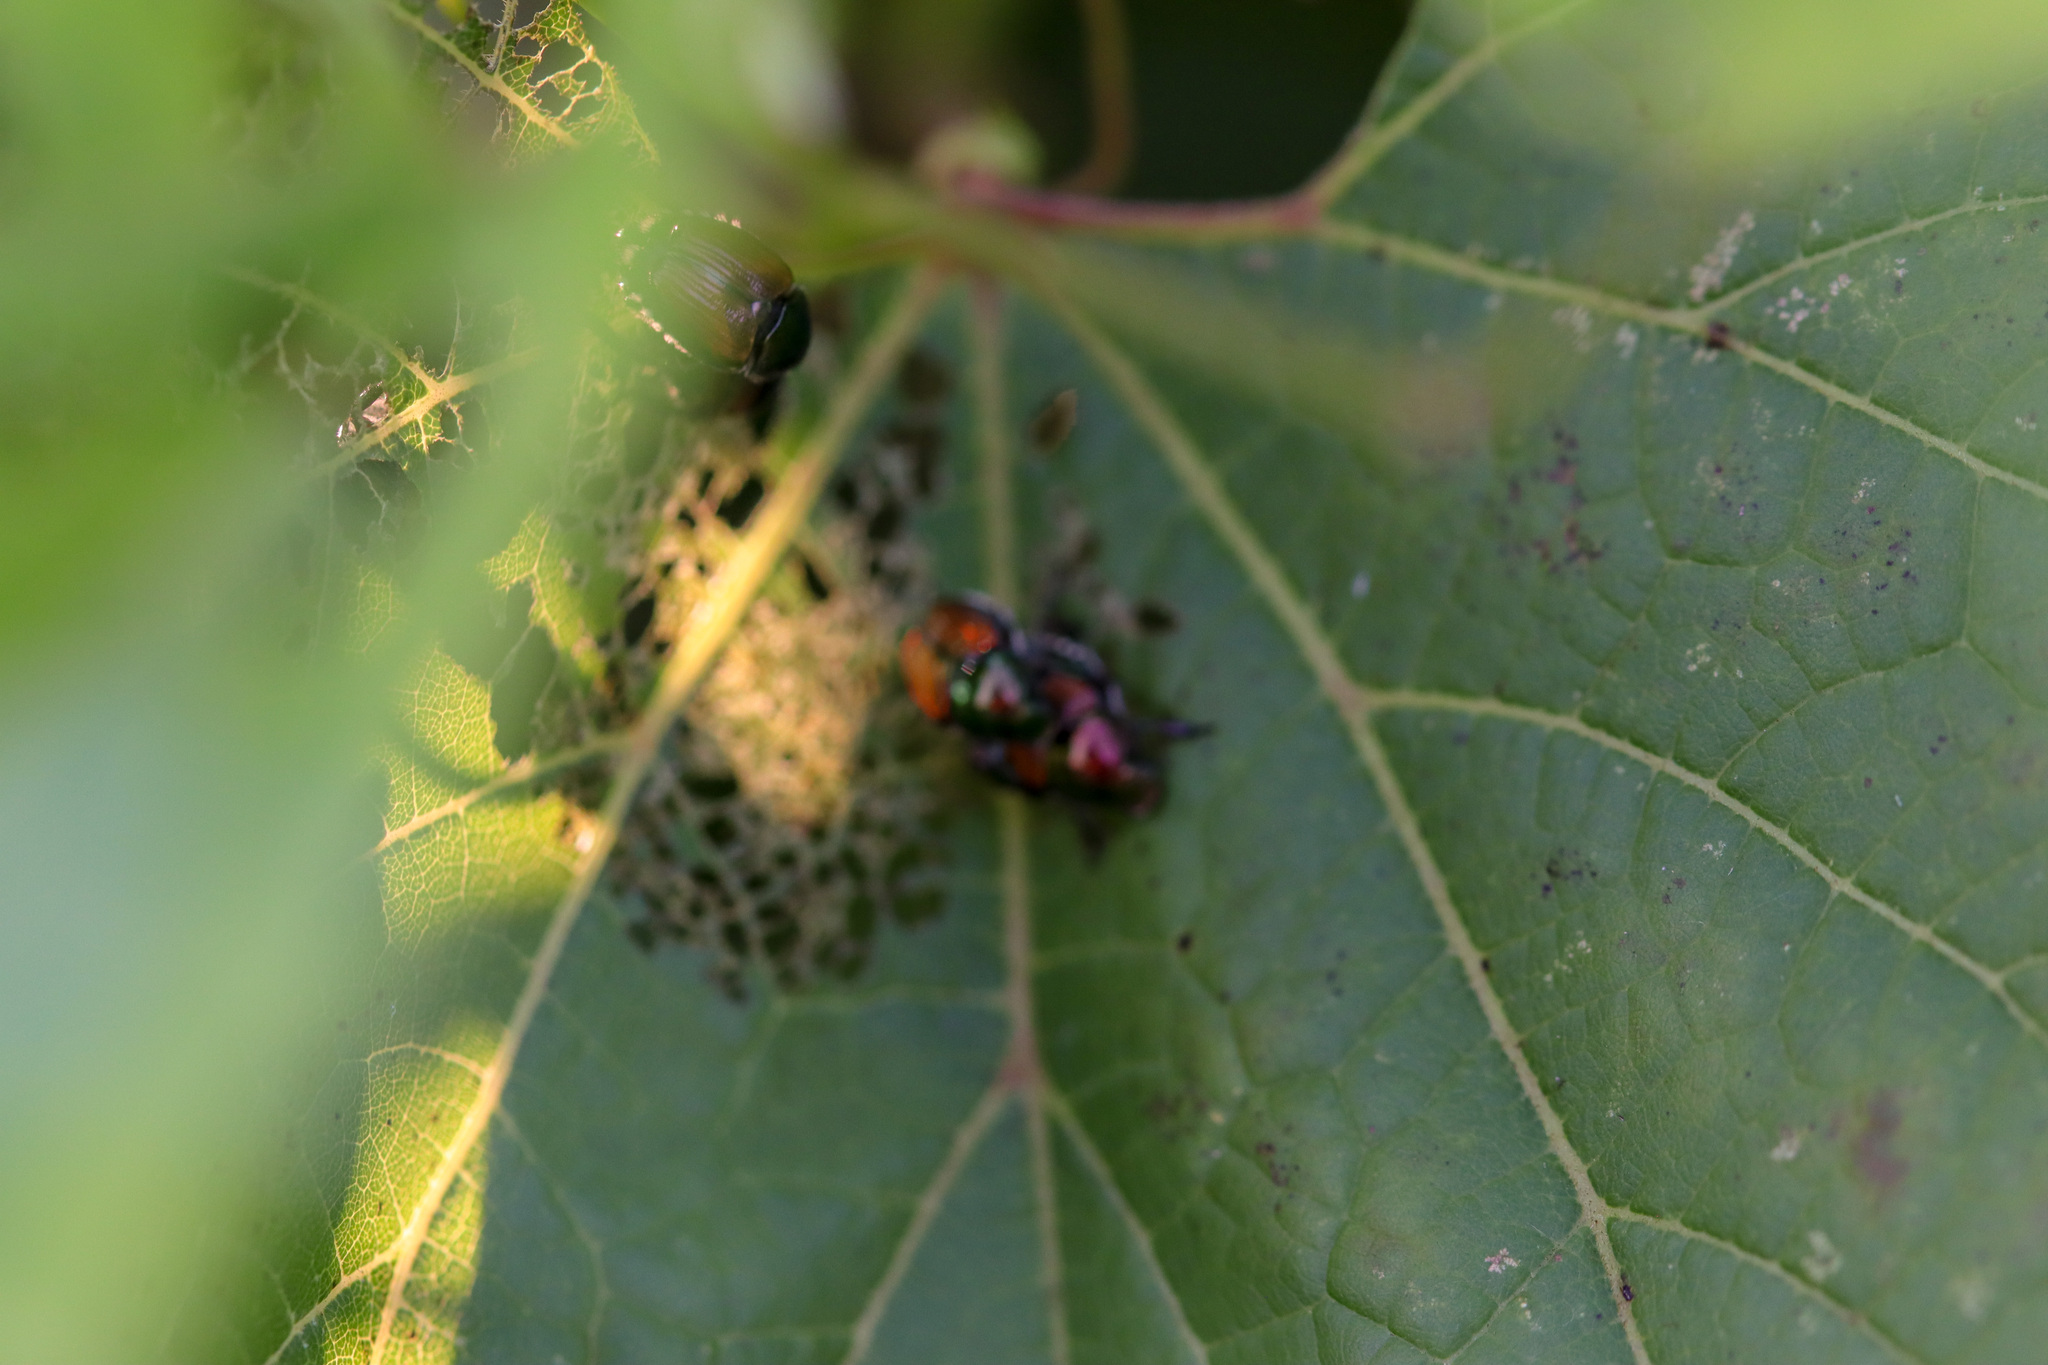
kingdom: Animalia
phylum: Arthropoda
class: Insecta
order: Coleoptera
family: Scarabaeidae
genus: Popillia
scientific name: Popillia japonica
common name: Japanese beetle
